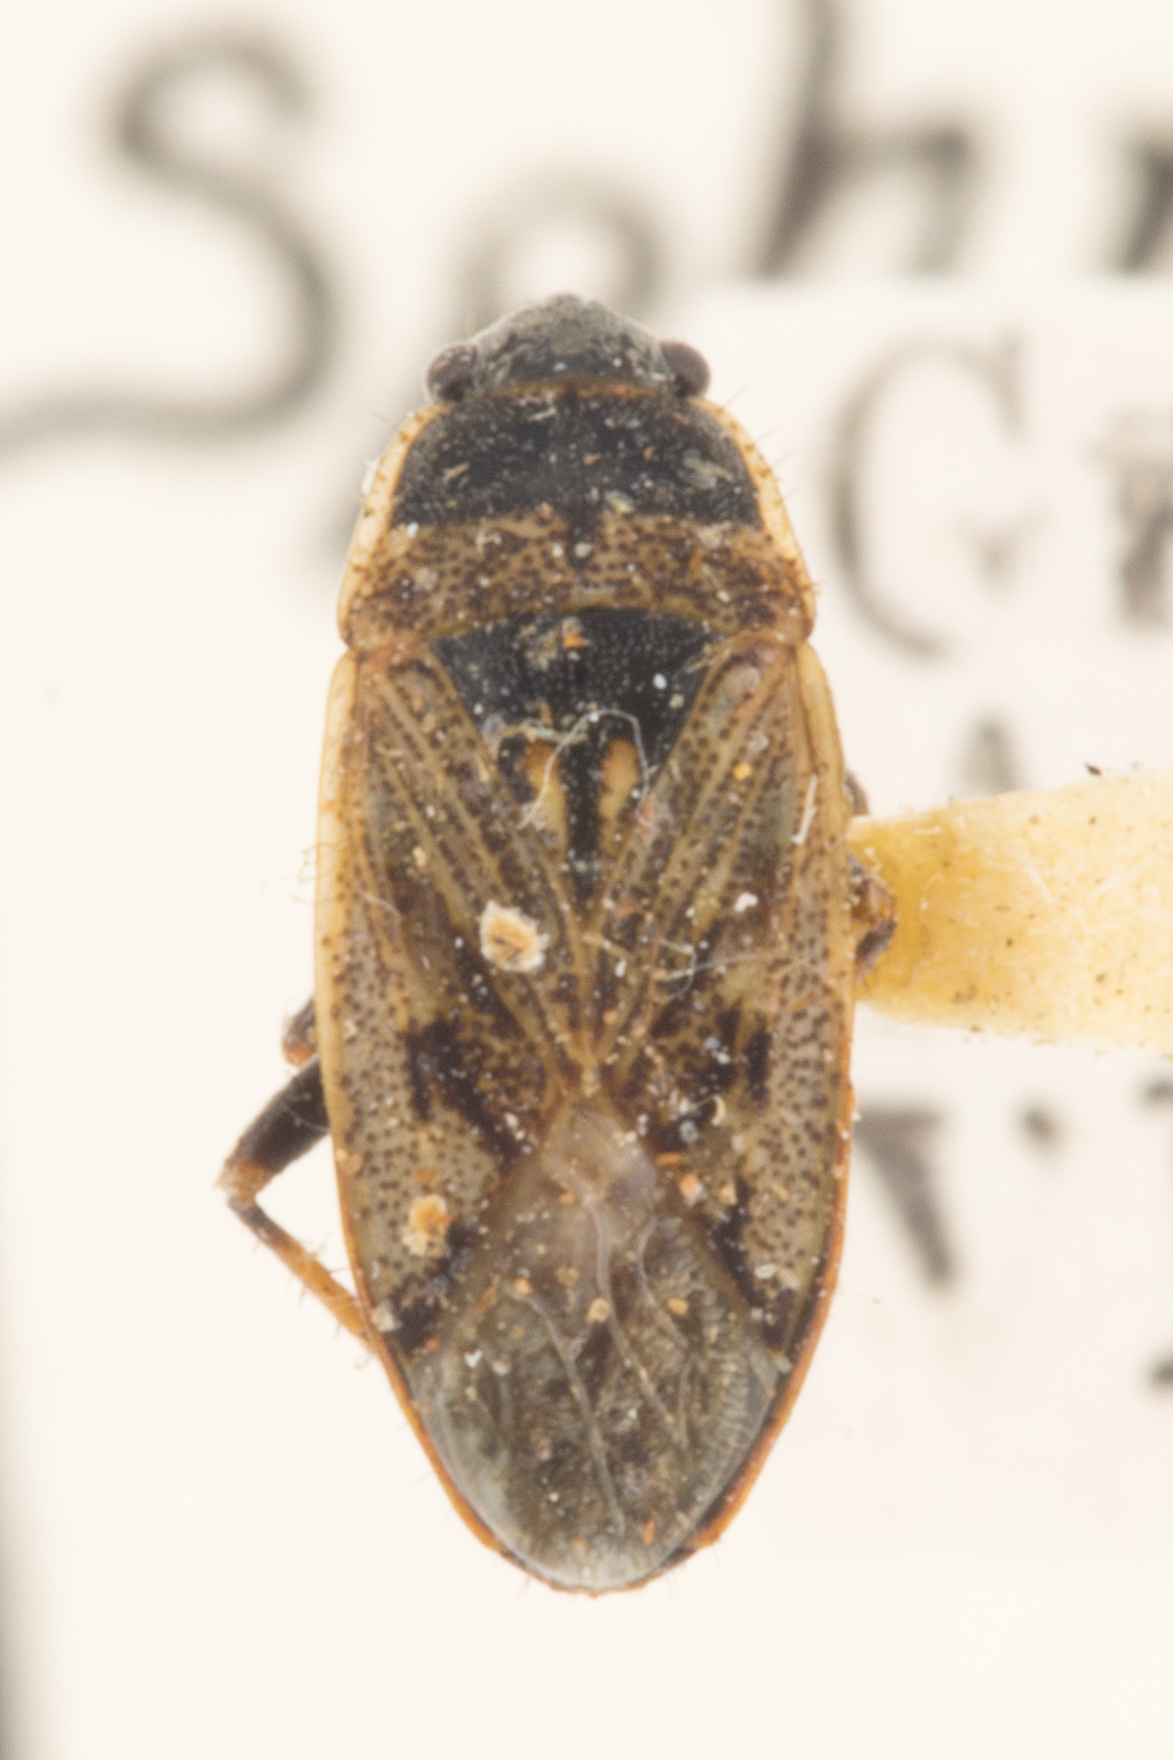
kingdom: Animalia
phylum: Arthropoda
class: Insecta
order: Hemiptera
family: Rhyparochromidae
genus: Sphragisticus
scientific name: Sphragisticus nebulosus
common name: Dirt-colored seed bug
